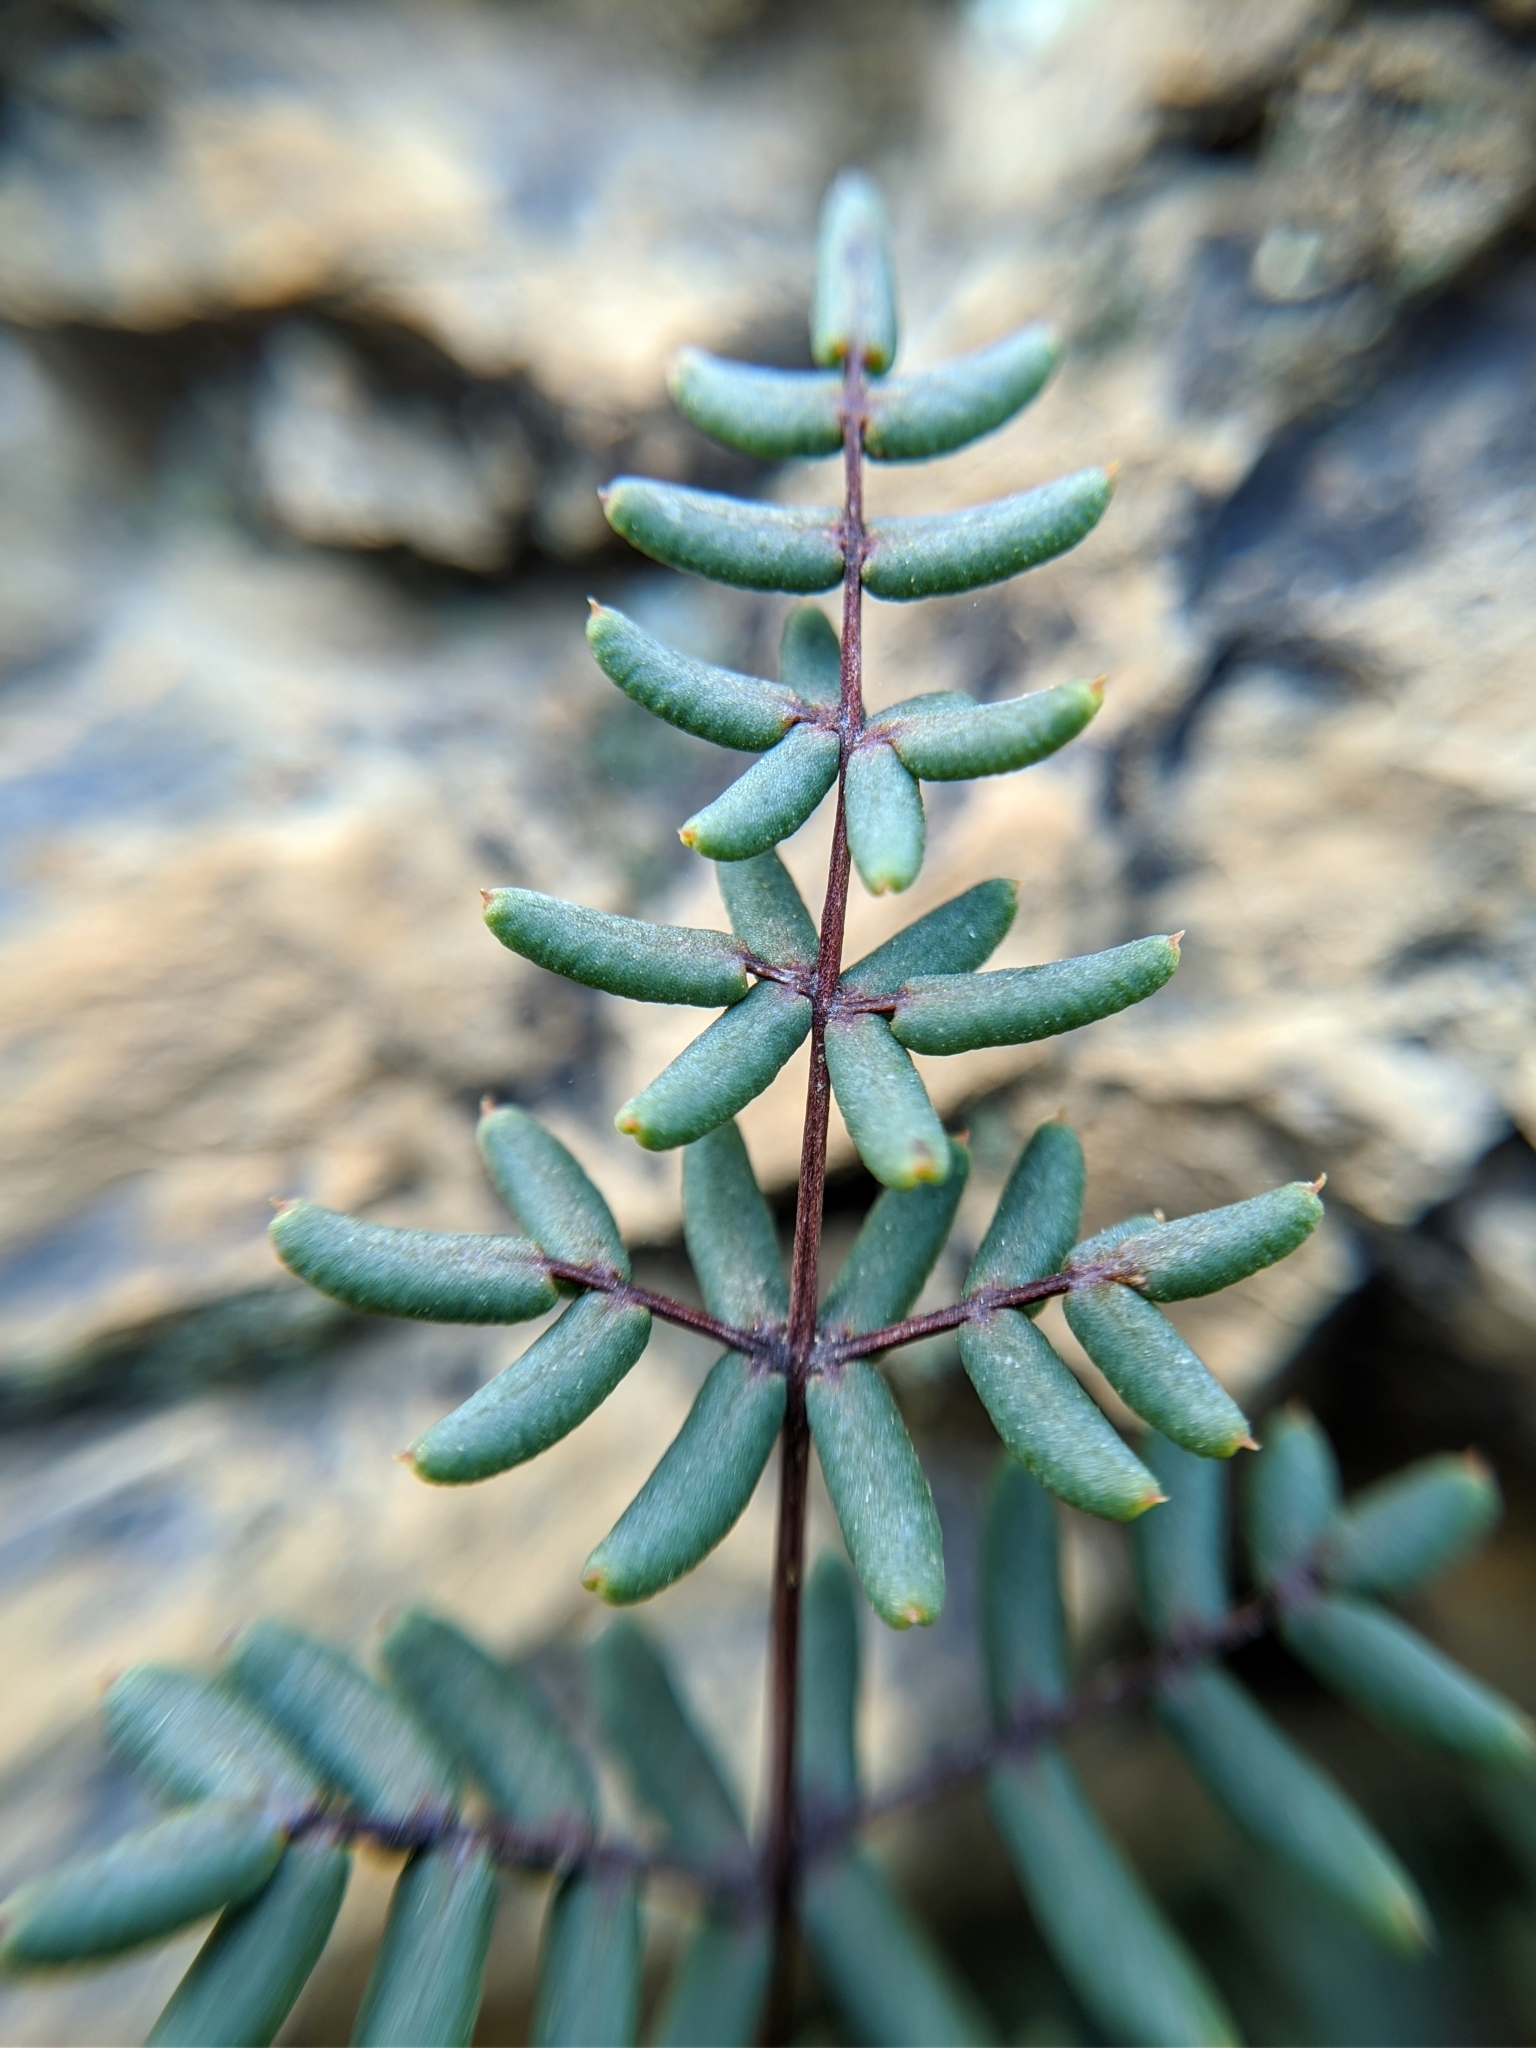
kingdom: Plantae
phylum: Tracheophyta
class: Polypodiopsida
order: Polypodiales
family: Pteridaceae
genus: Pellaea
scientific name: Pellaea mucronata
